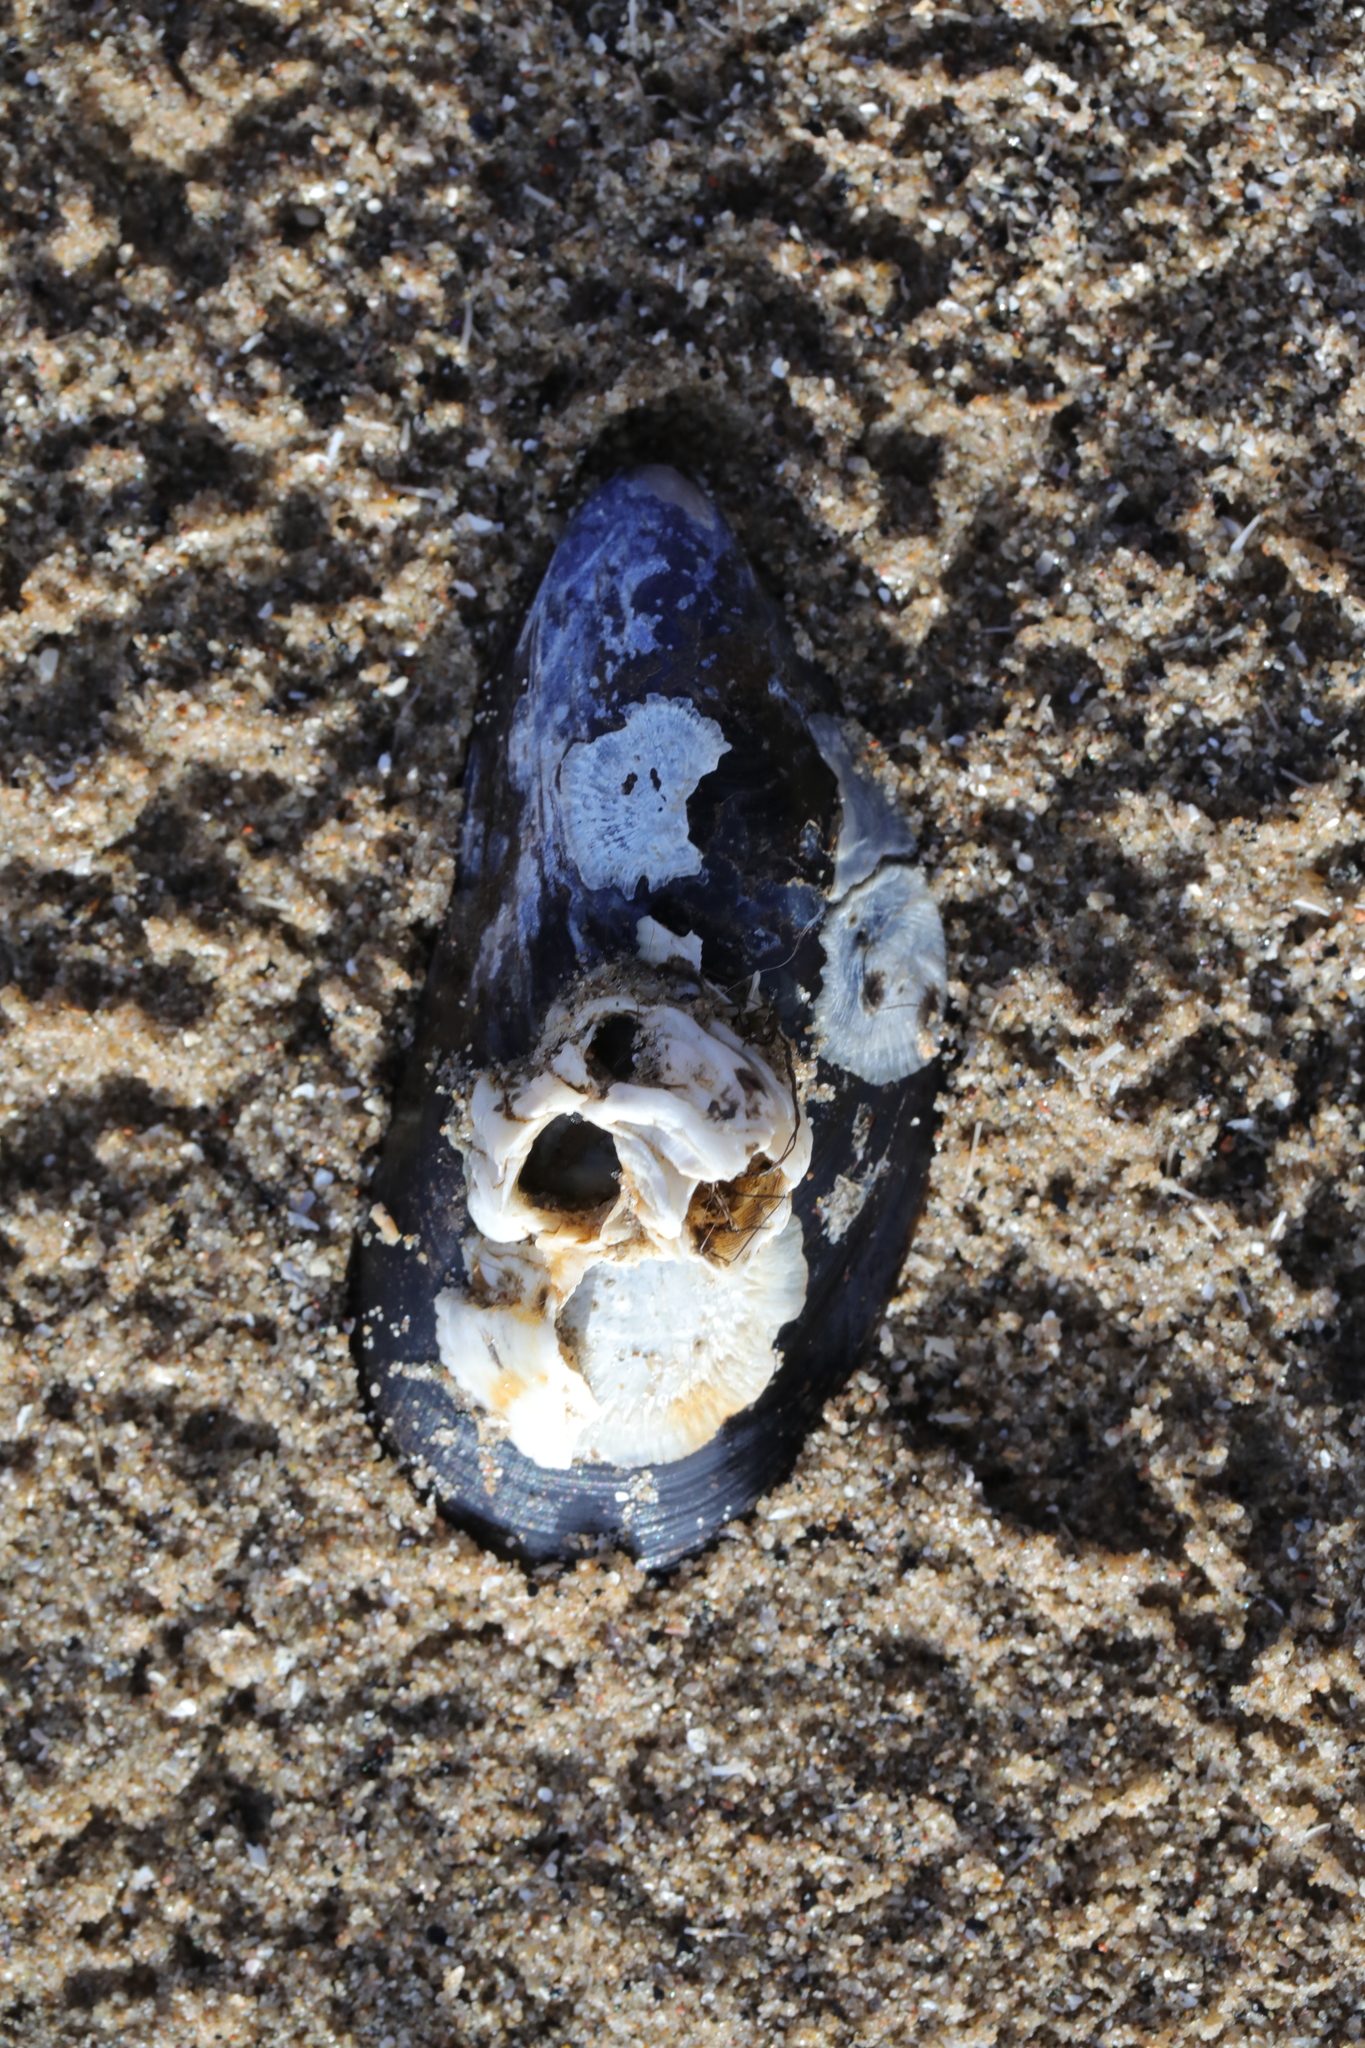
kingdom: Animalia
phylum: Mollusca
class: Bivalvia
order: Mytilida
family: Mytilidae
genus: Mytilus
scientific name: Mytilus edulis
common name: Blue mussel
